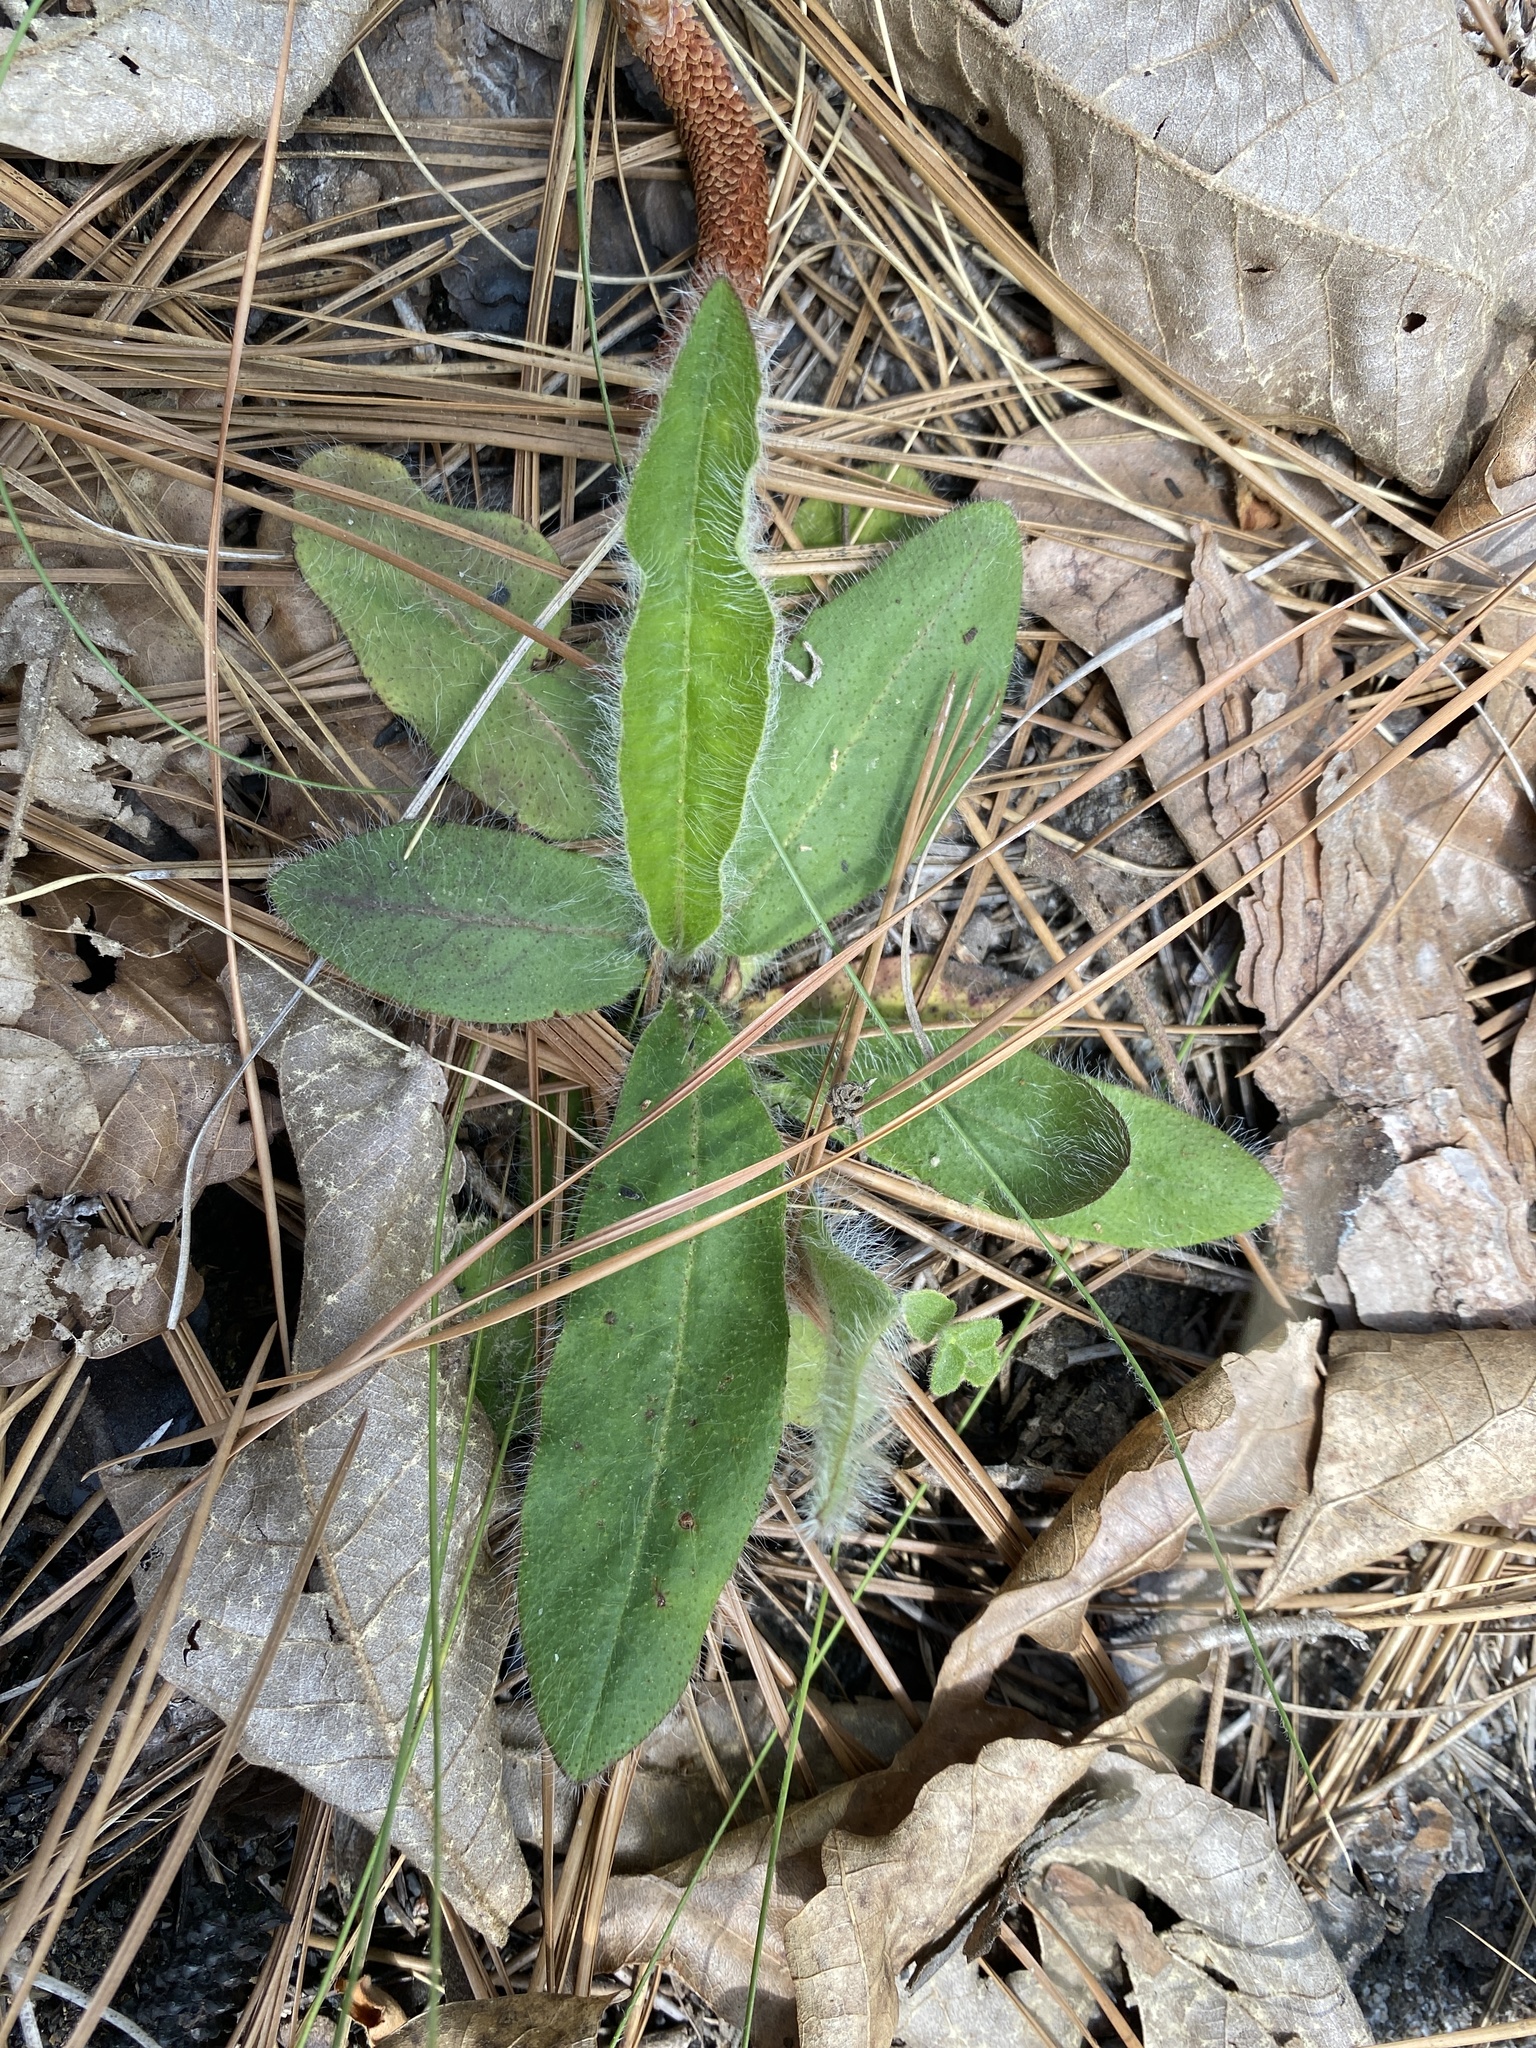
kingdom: Plantae
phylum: Tracheophyta
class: Magnoliopsida
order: Asterales
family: Asteraceae
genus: Hieracium
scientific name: Hieracium gronovii
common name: Beaked hawkweed
